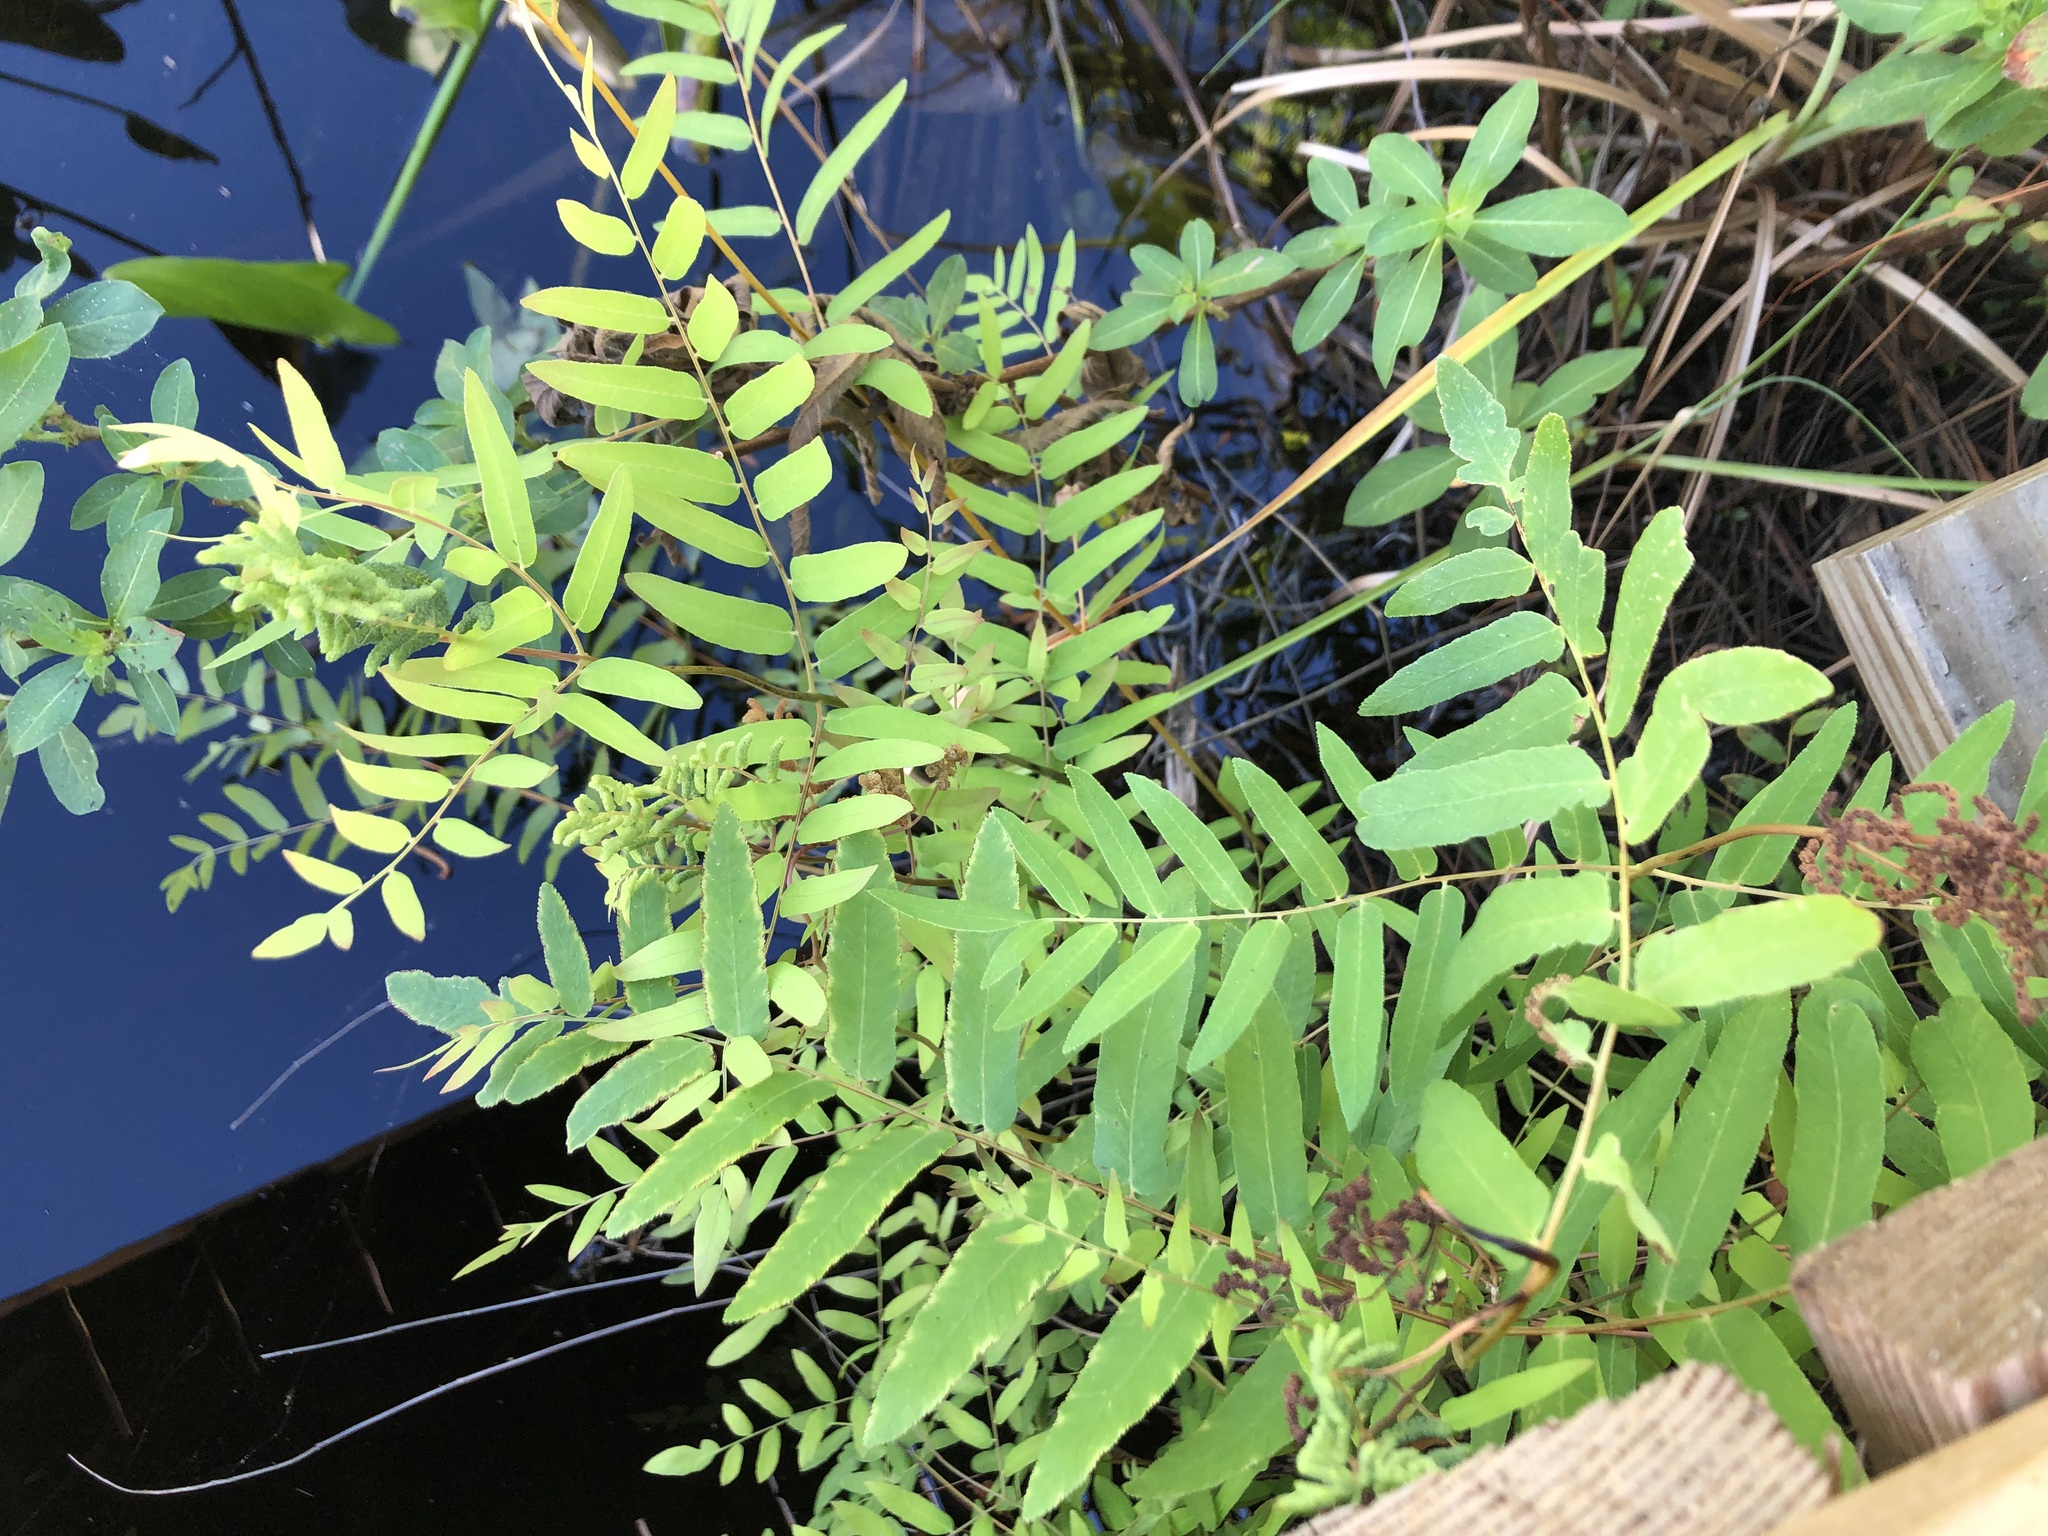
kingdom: Plantae
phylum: Tracheophyta
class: Polypodiopsida
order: Osmundales
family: Osmundaceae
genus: Osmunda
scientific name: Osmunda spectabilis
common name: American royal fern
